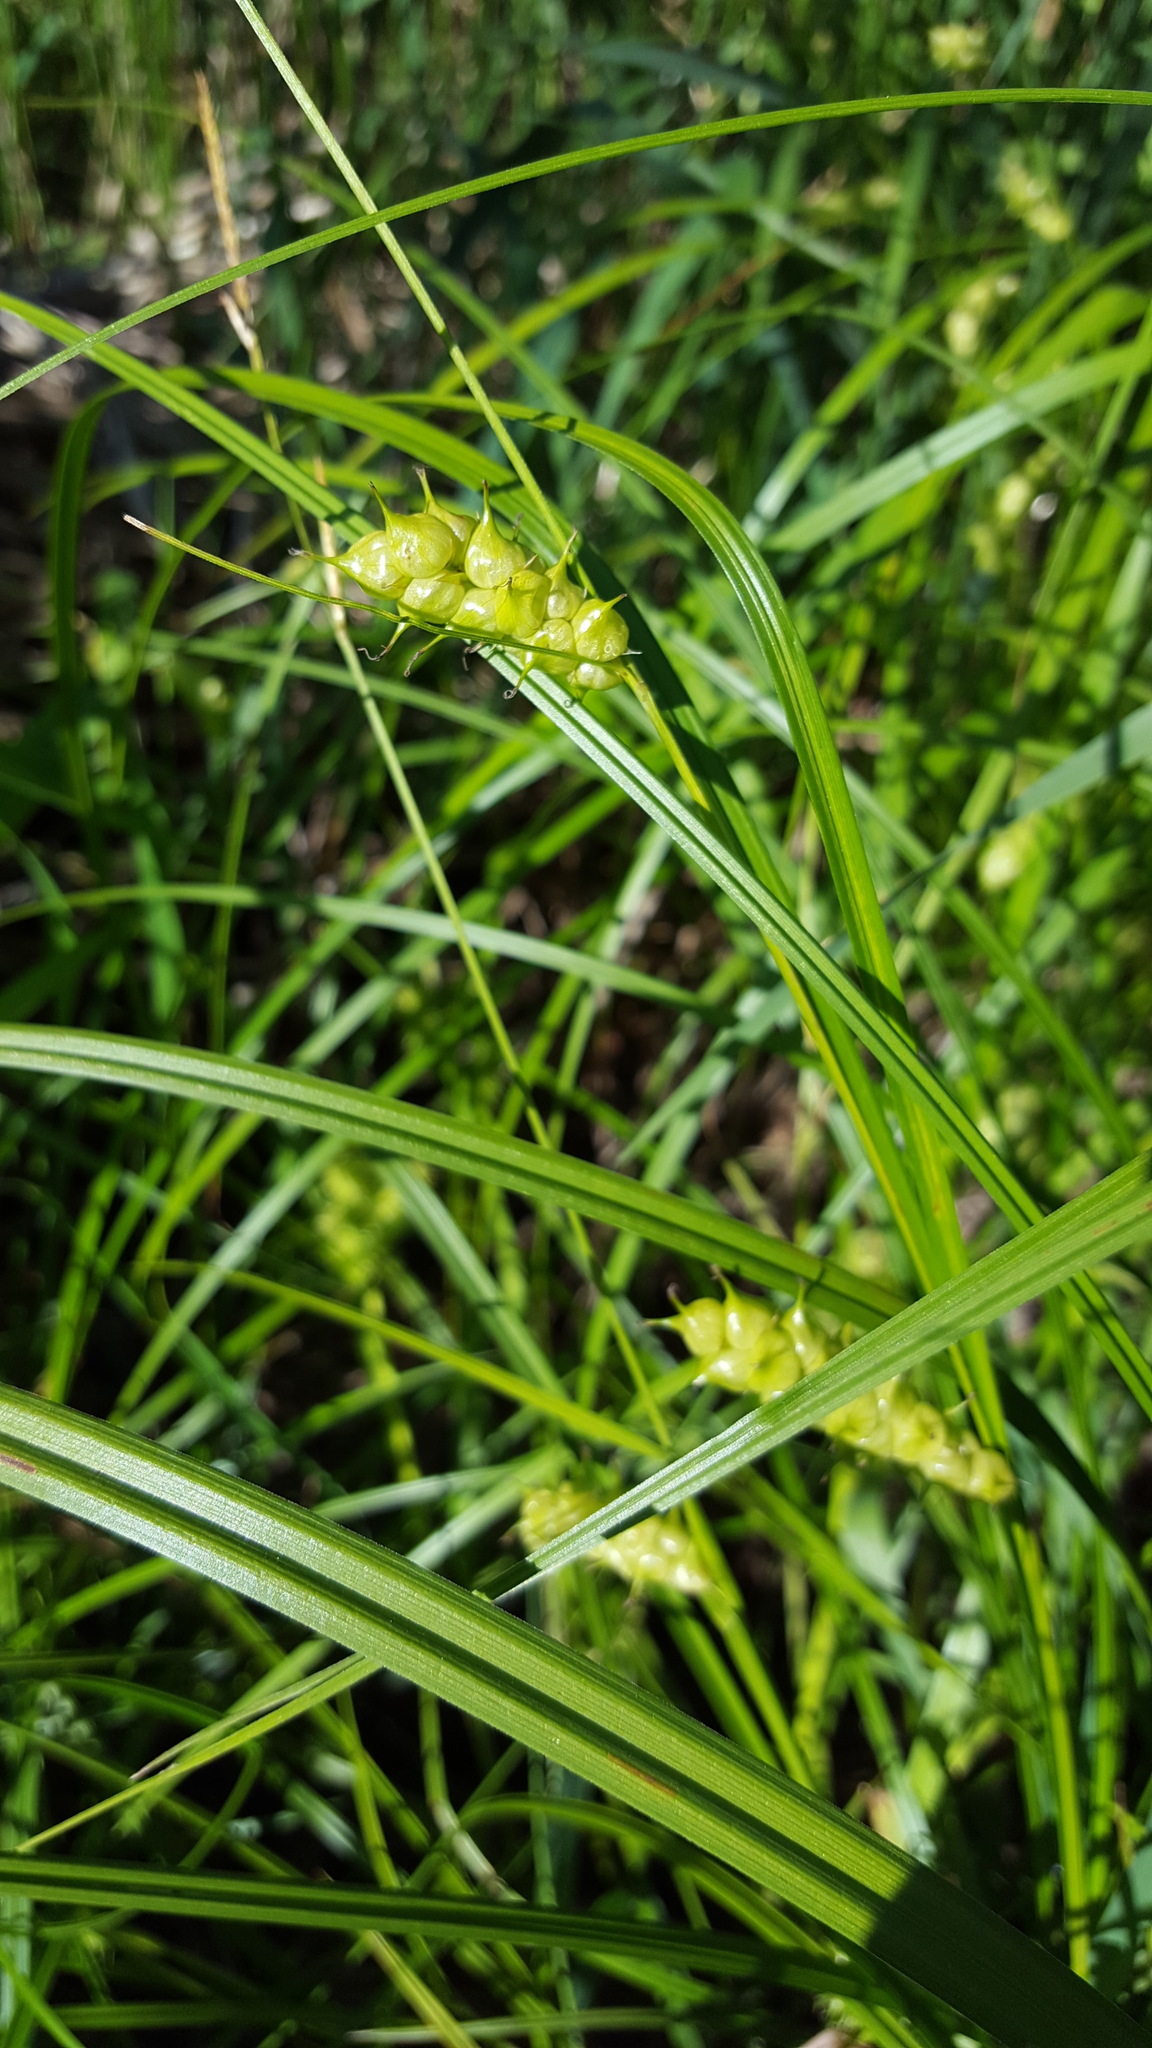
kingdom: Plantae
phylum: Tracheophyta
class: Liliopsida
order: Poales
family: Cyperaceae
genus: Carex
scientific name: Carex tuckermanii
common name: Tuckerman's sedge
